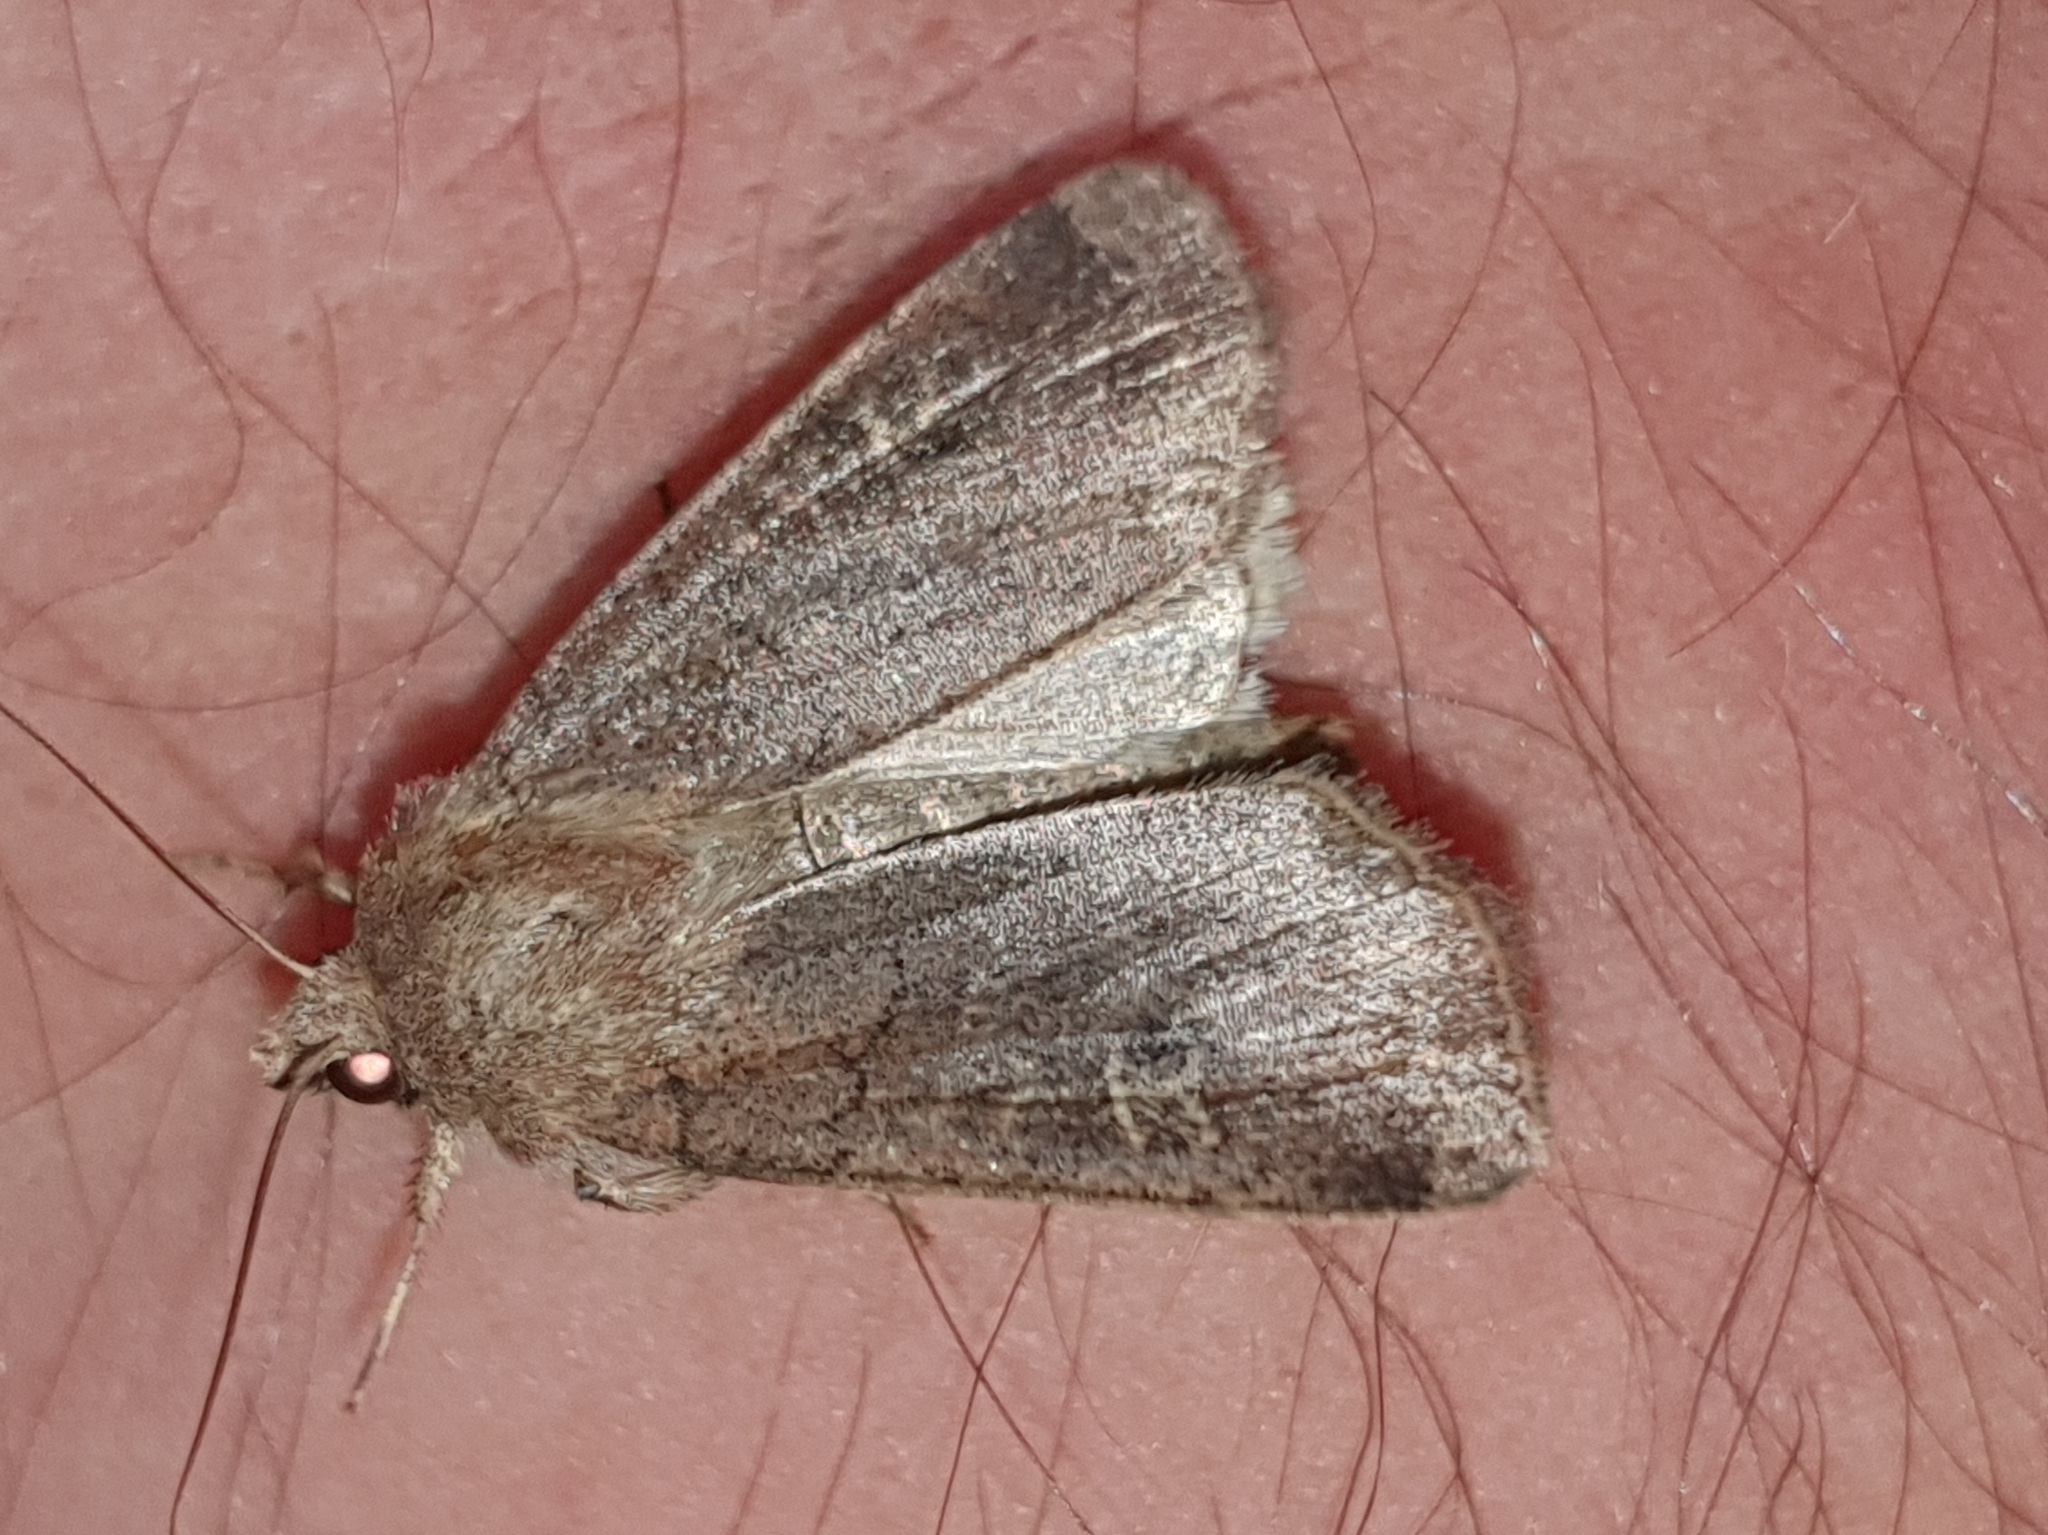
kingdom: Animalia
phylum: Arthropoda
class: Insecta
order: Lepidoptera
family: Noctuidae
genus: Xestia
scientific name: Xestia xanthographa
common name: Square-spot rustic
